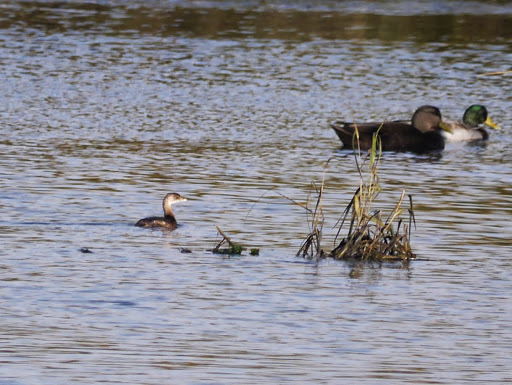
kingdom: Animalia
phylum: Chordata
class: Aves
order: Podicipediformes
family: Podicipedidae
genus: Podilymbus
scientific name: Podilymbus podiceps
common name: Pied-billed grebe
